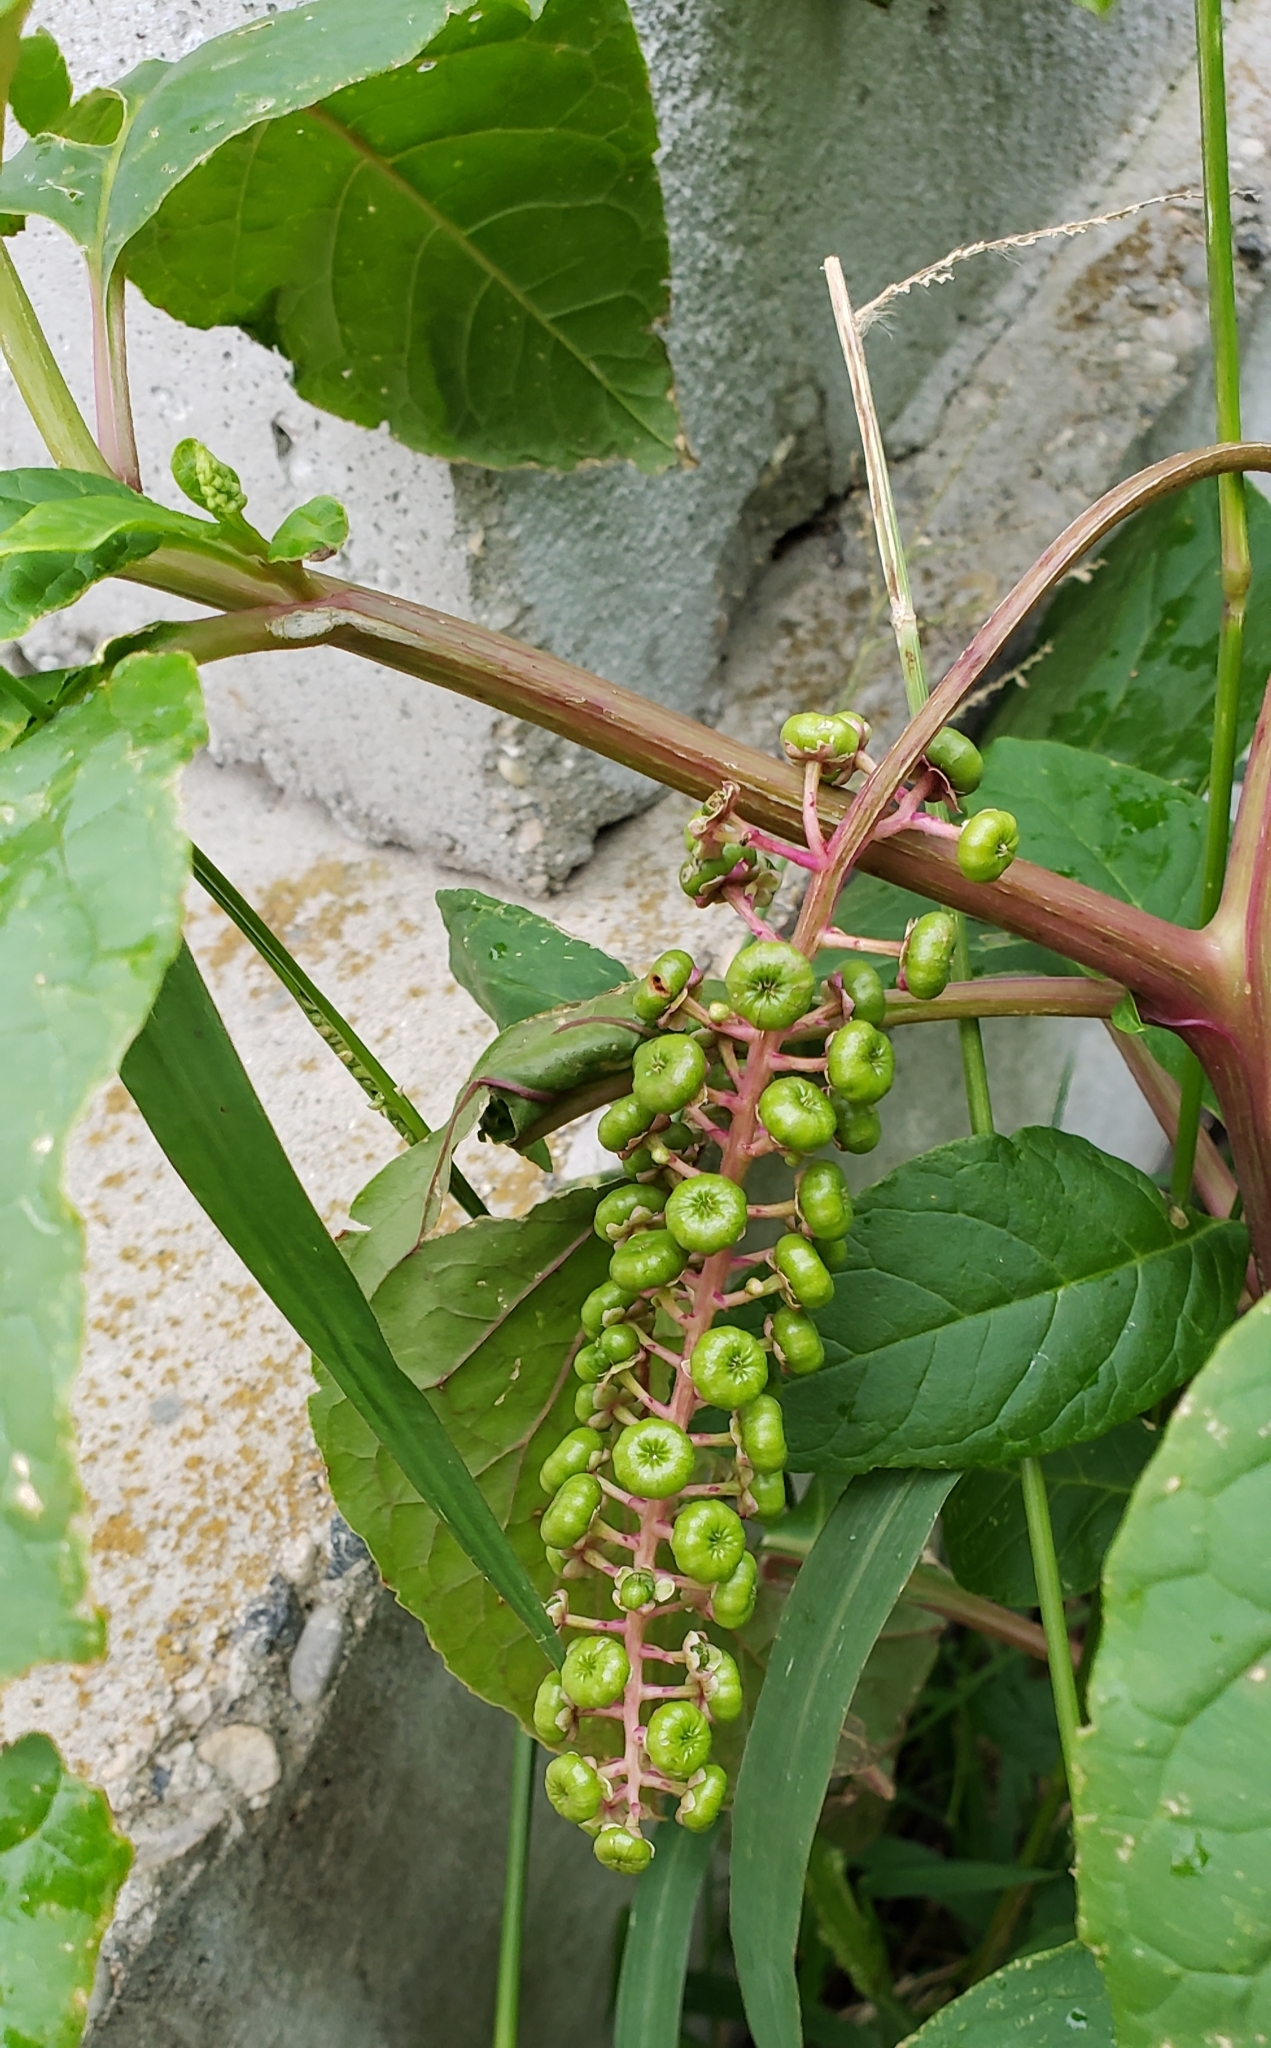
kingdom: Plantae
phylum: Tracheophyta
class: Magnoliopsida
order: Caryophyllales
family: Phytolaccaceae
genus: Phytolacca
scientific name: Phytolacca americana
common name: American pokeweed
